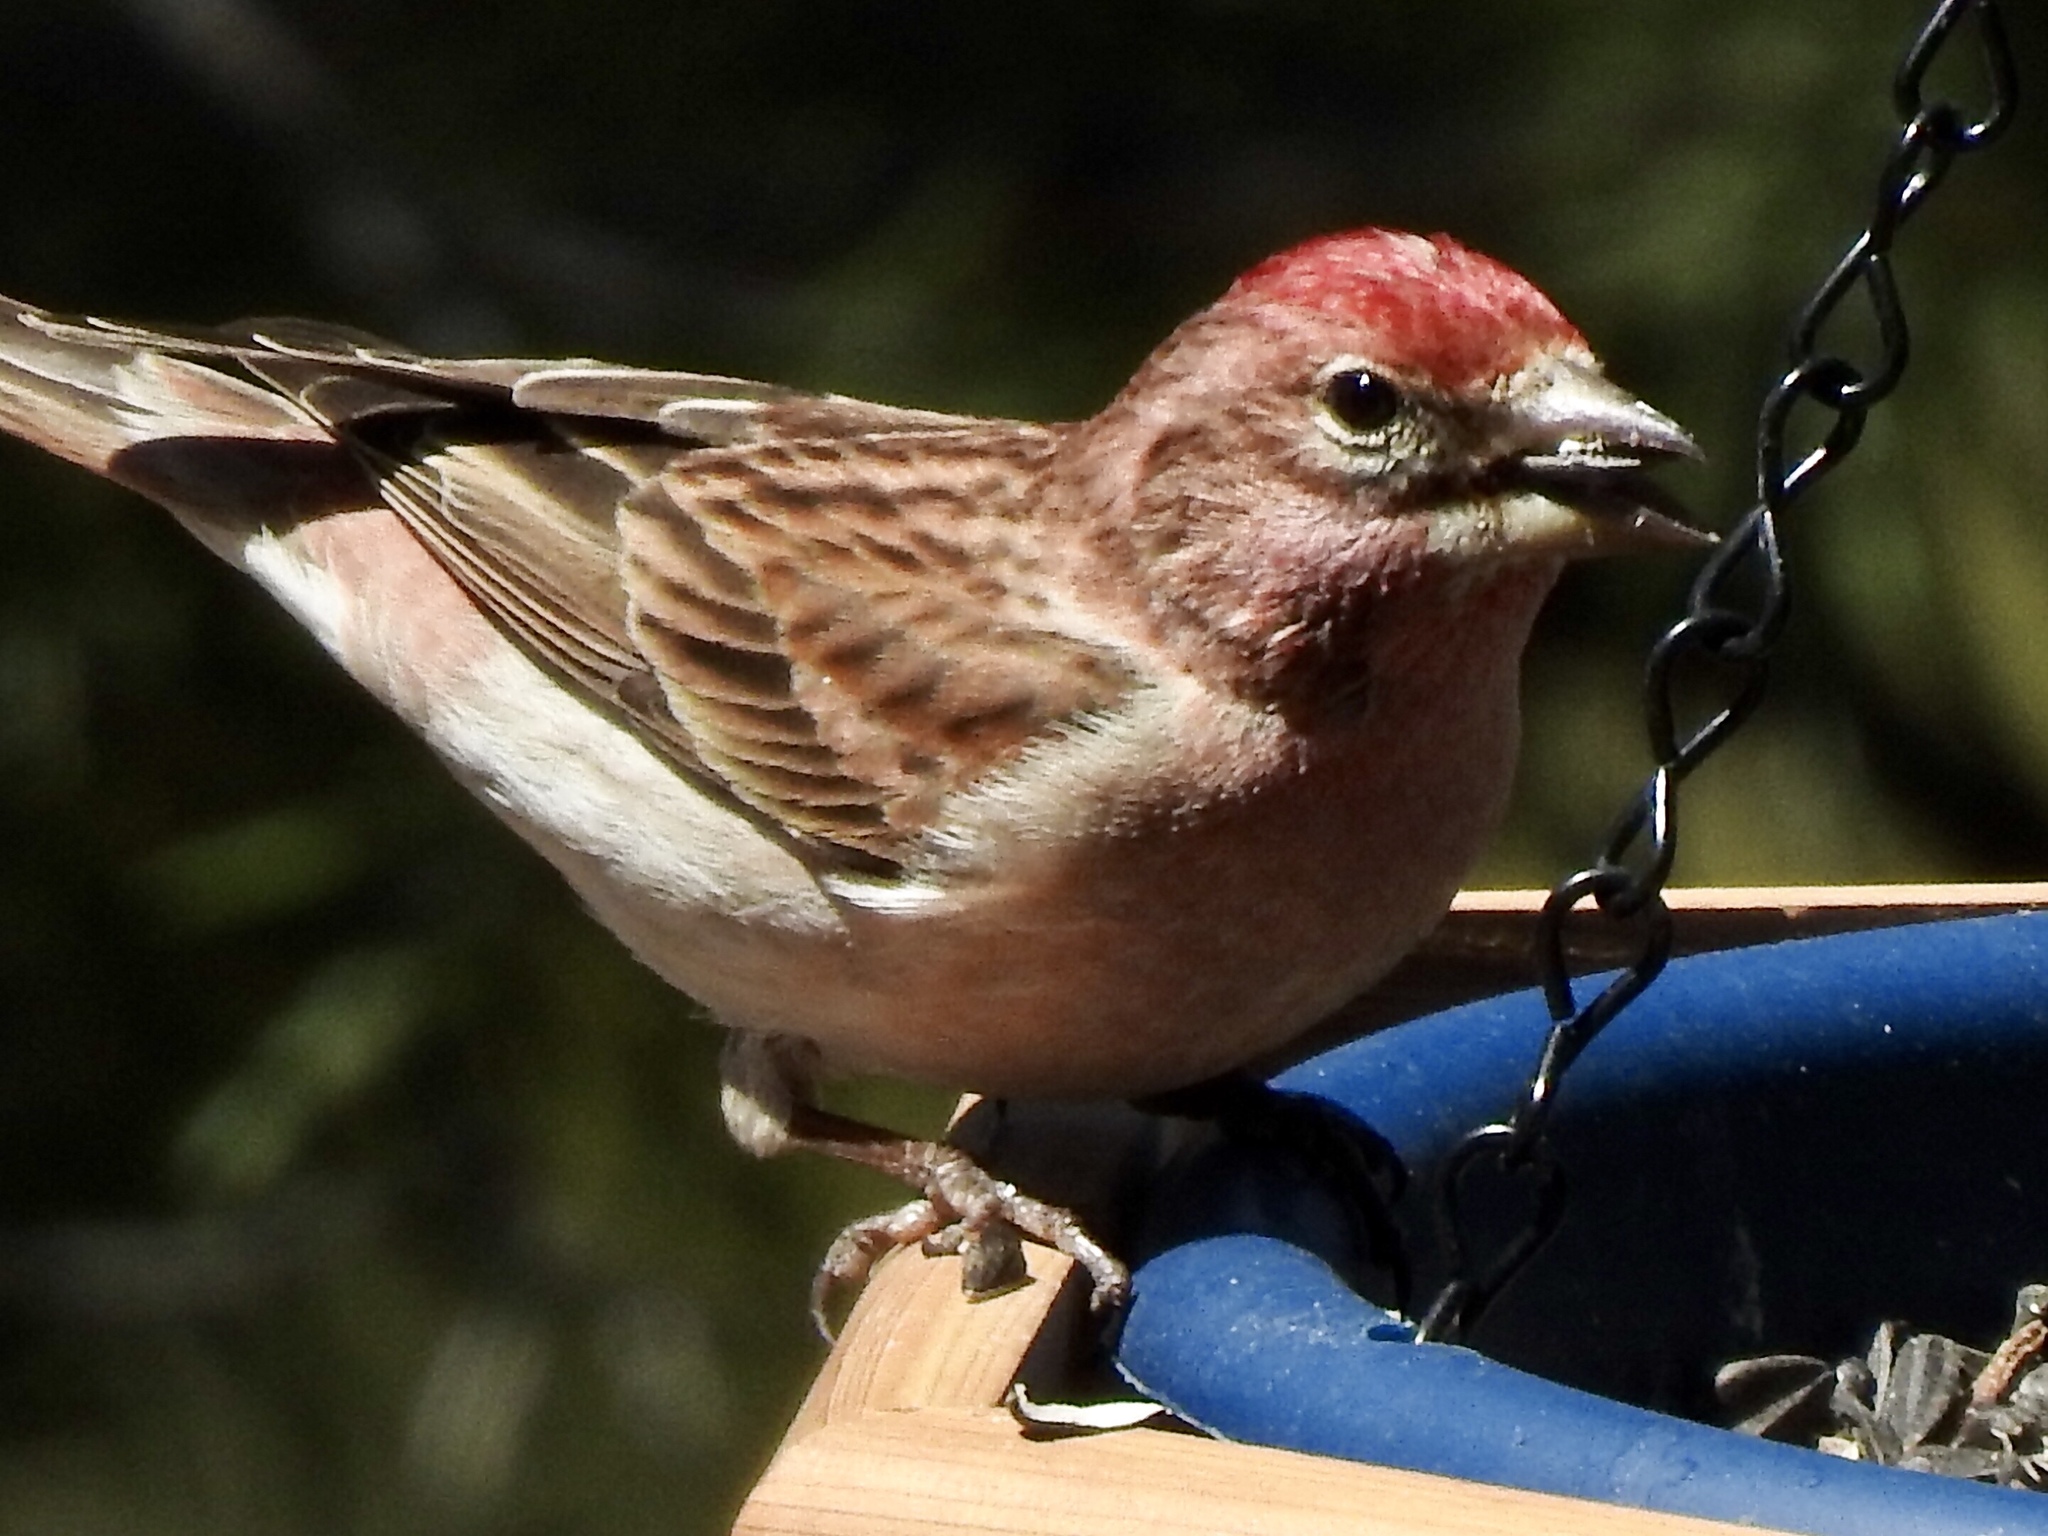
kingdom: Animalia
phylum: Chordata
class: Aves
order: Passeriformes
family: Fringillidae
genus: Haemorhous
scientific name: Haemorhous cassinii
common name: Cassin's finch
